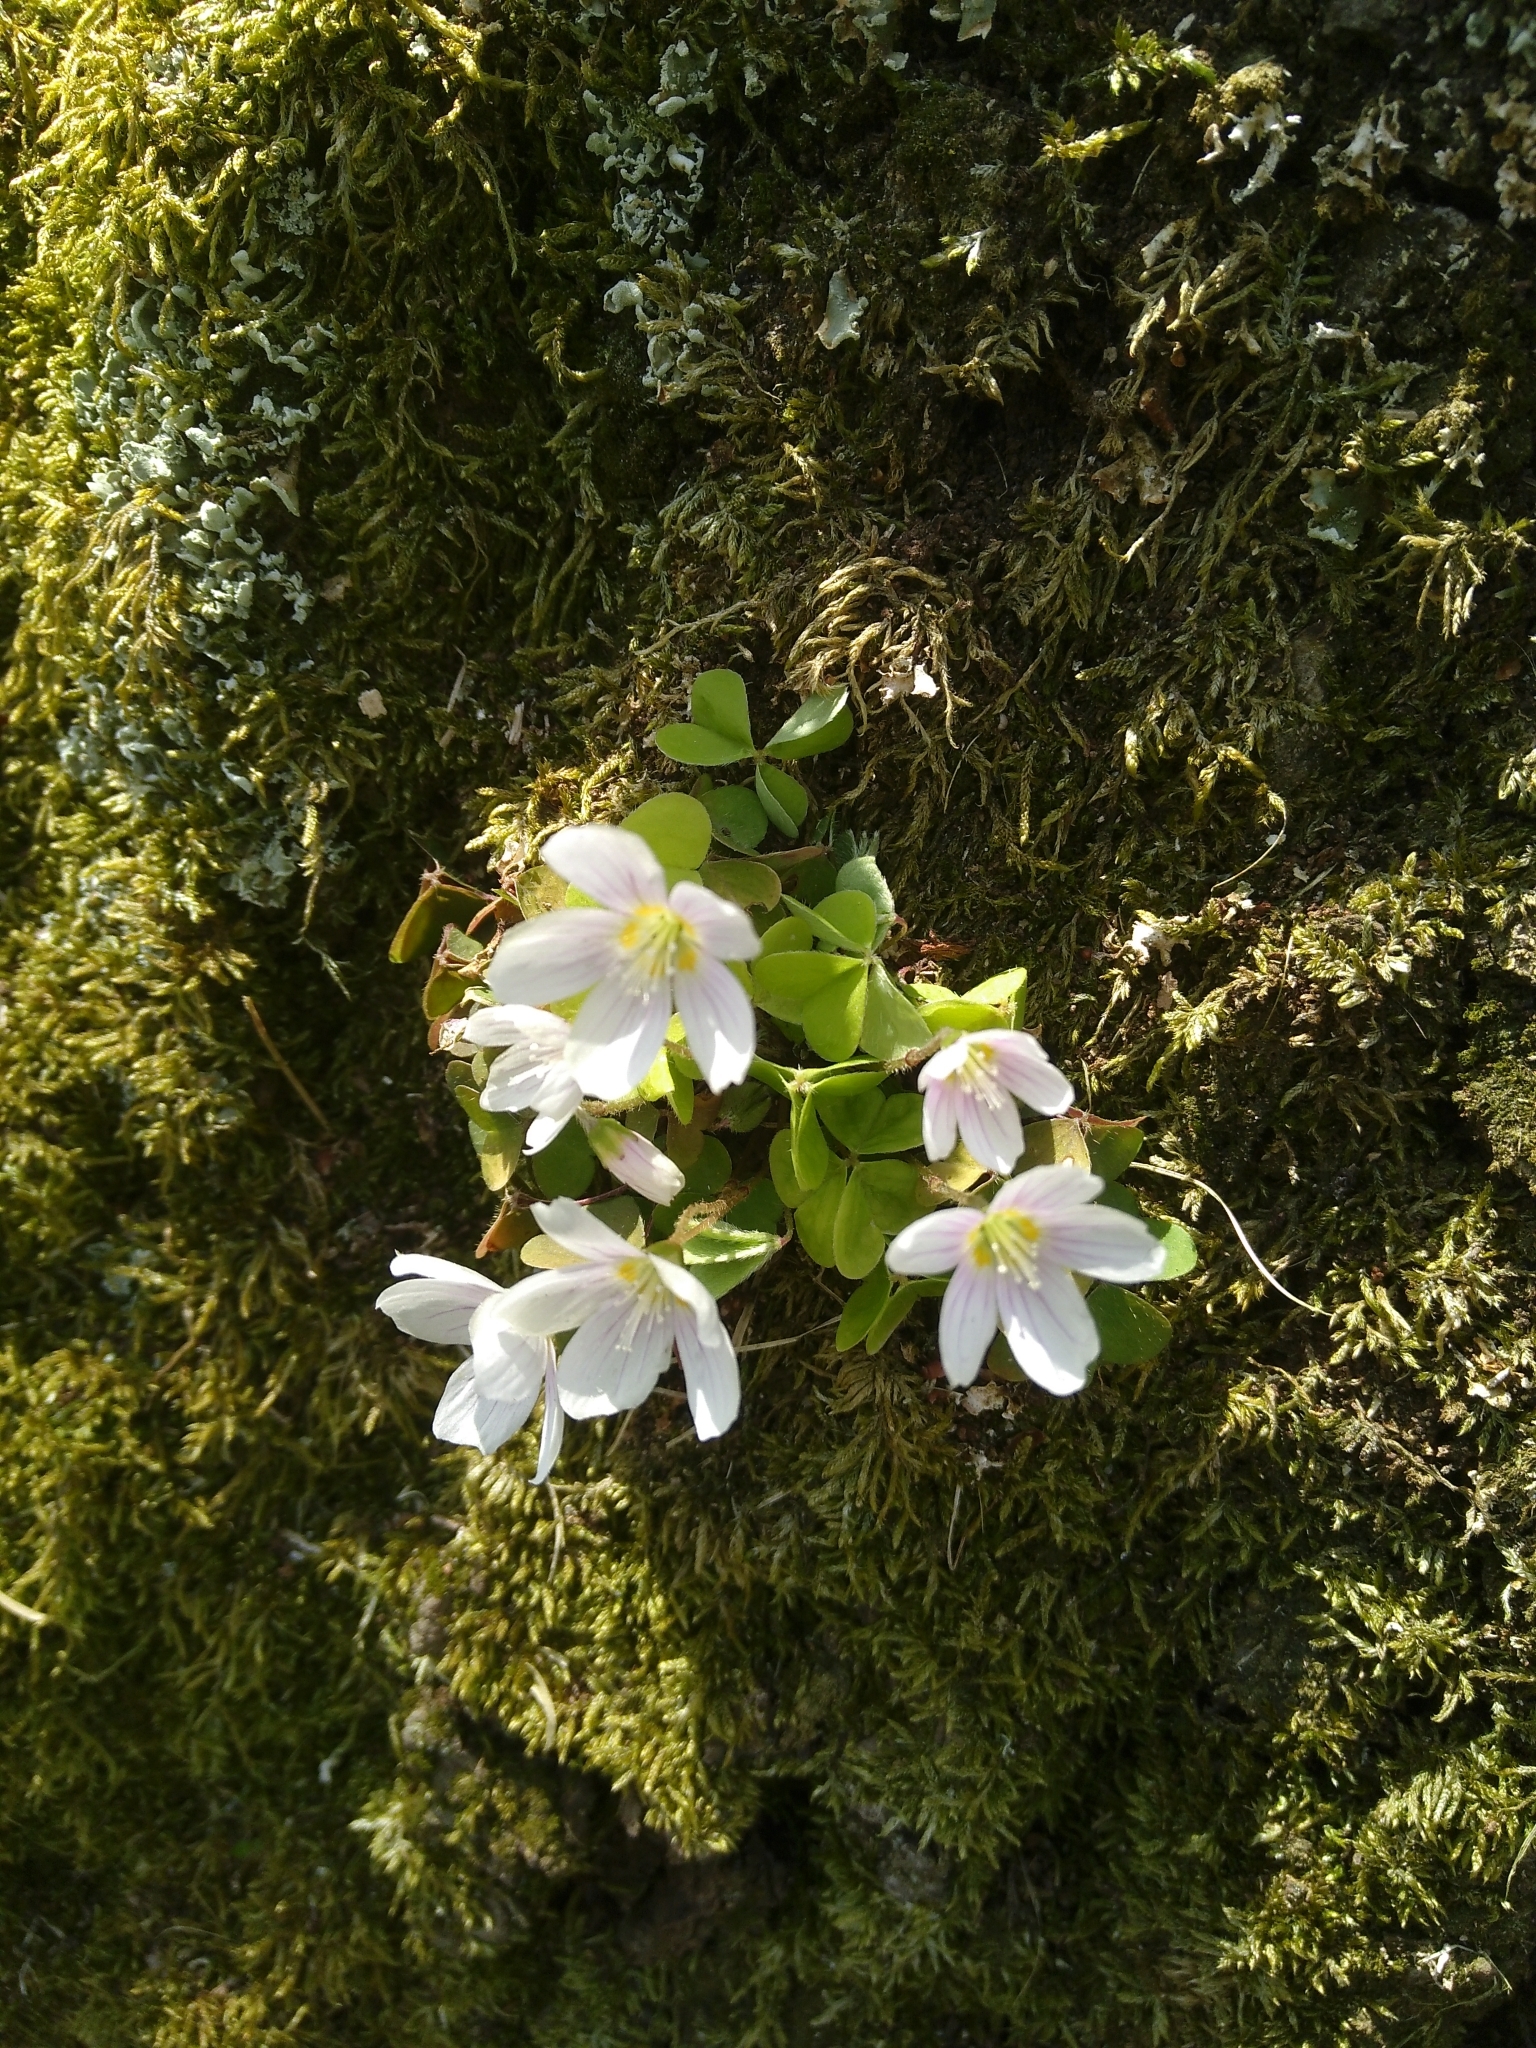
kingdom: Plantae
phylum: Tracheophyta
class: Magnoliopsida
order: Oxalidales
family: Oxalidaceae
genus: Oxalis
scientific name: Oxalis acetosella
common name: Wood-sorrel
